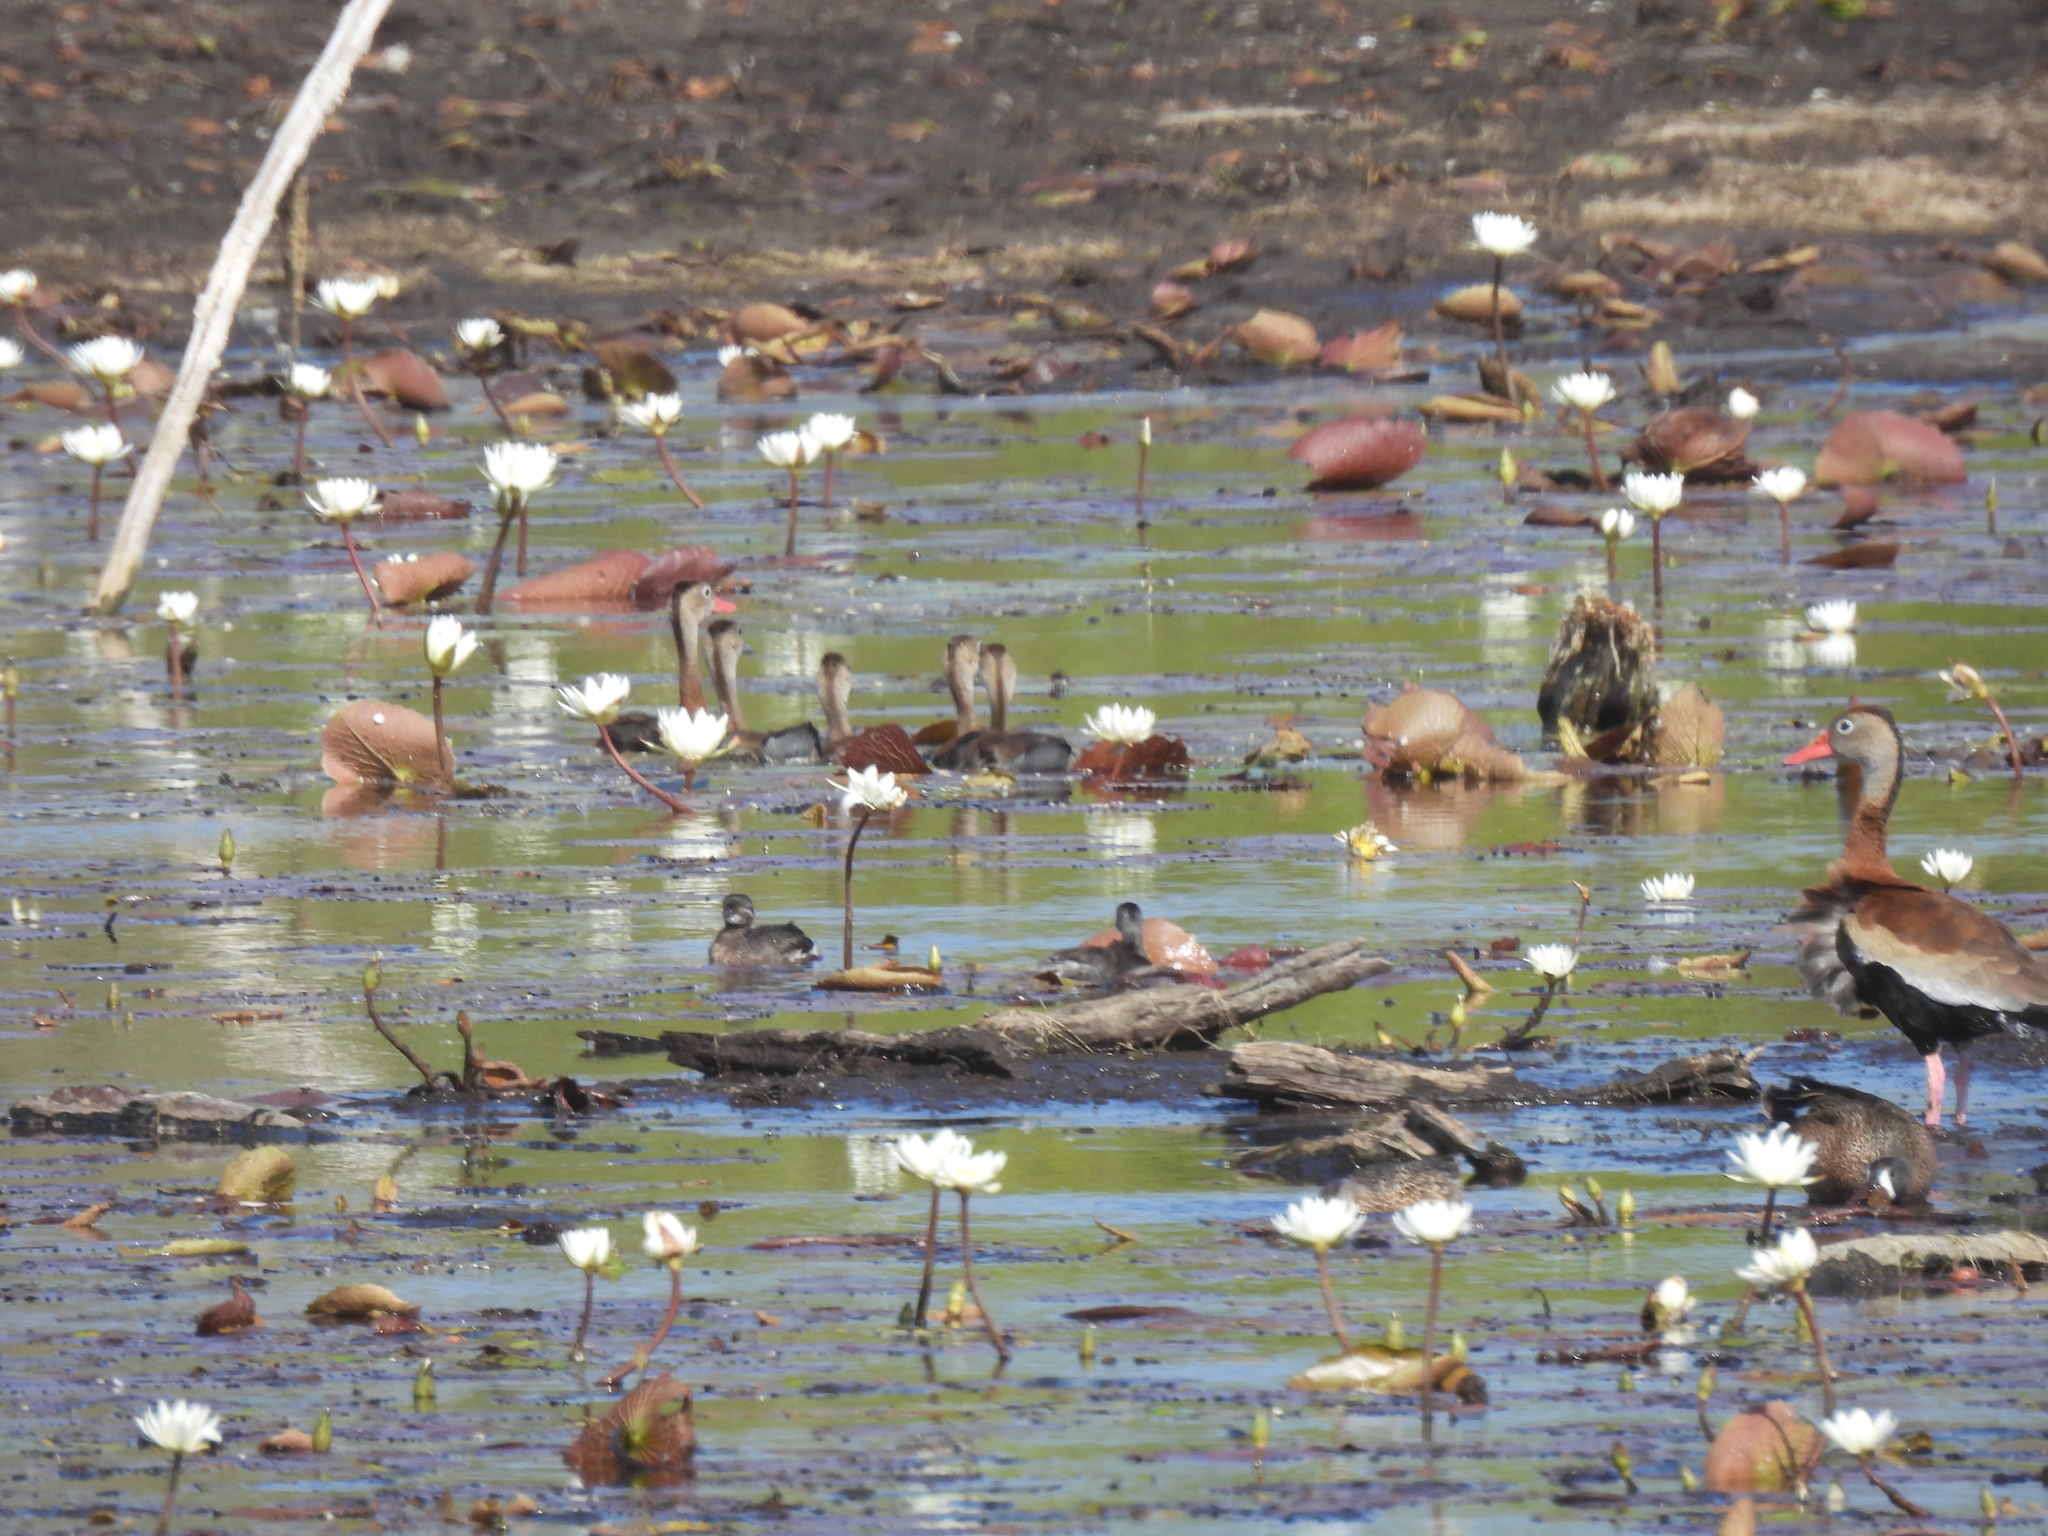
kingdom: Animalia
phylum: Chordata
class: Aves
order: Podicipediformes
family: Podicipedidae
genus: Tachybaptus
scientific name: Tachybaptus dominicus
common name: Least grebe
